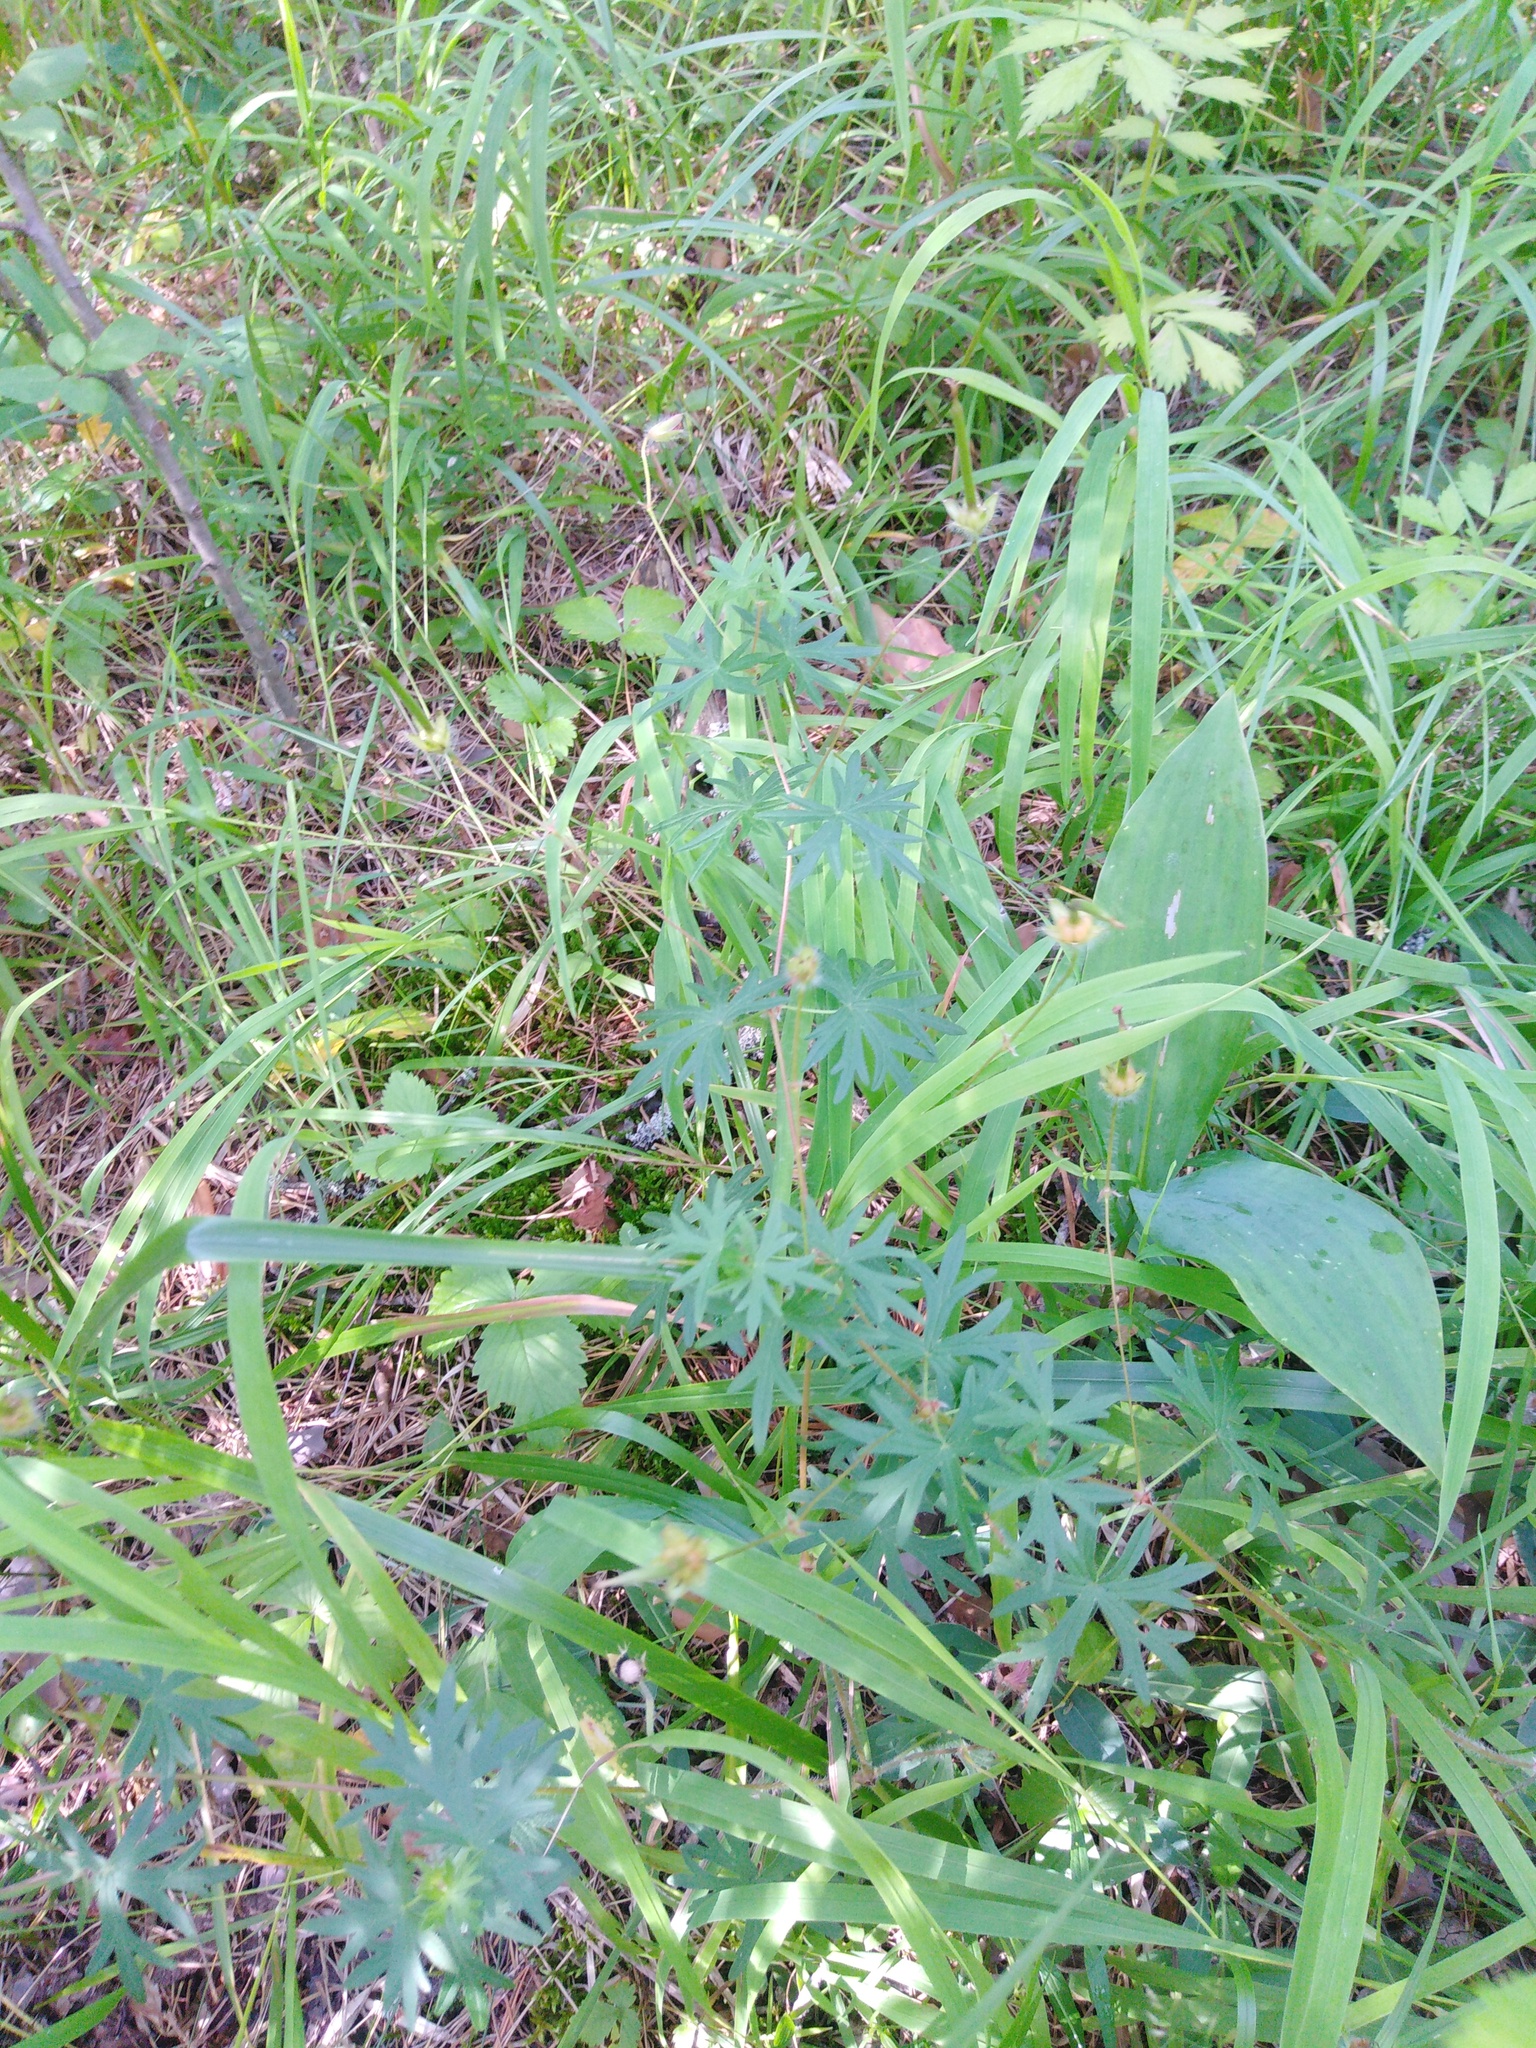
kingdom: Plantae
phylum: Tracheophyta
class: Magnoliopsida
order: Geraniales
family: Geraniaceae
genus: Geranium
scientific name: Geranium sanguineum
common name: Bloody crane's-bill
